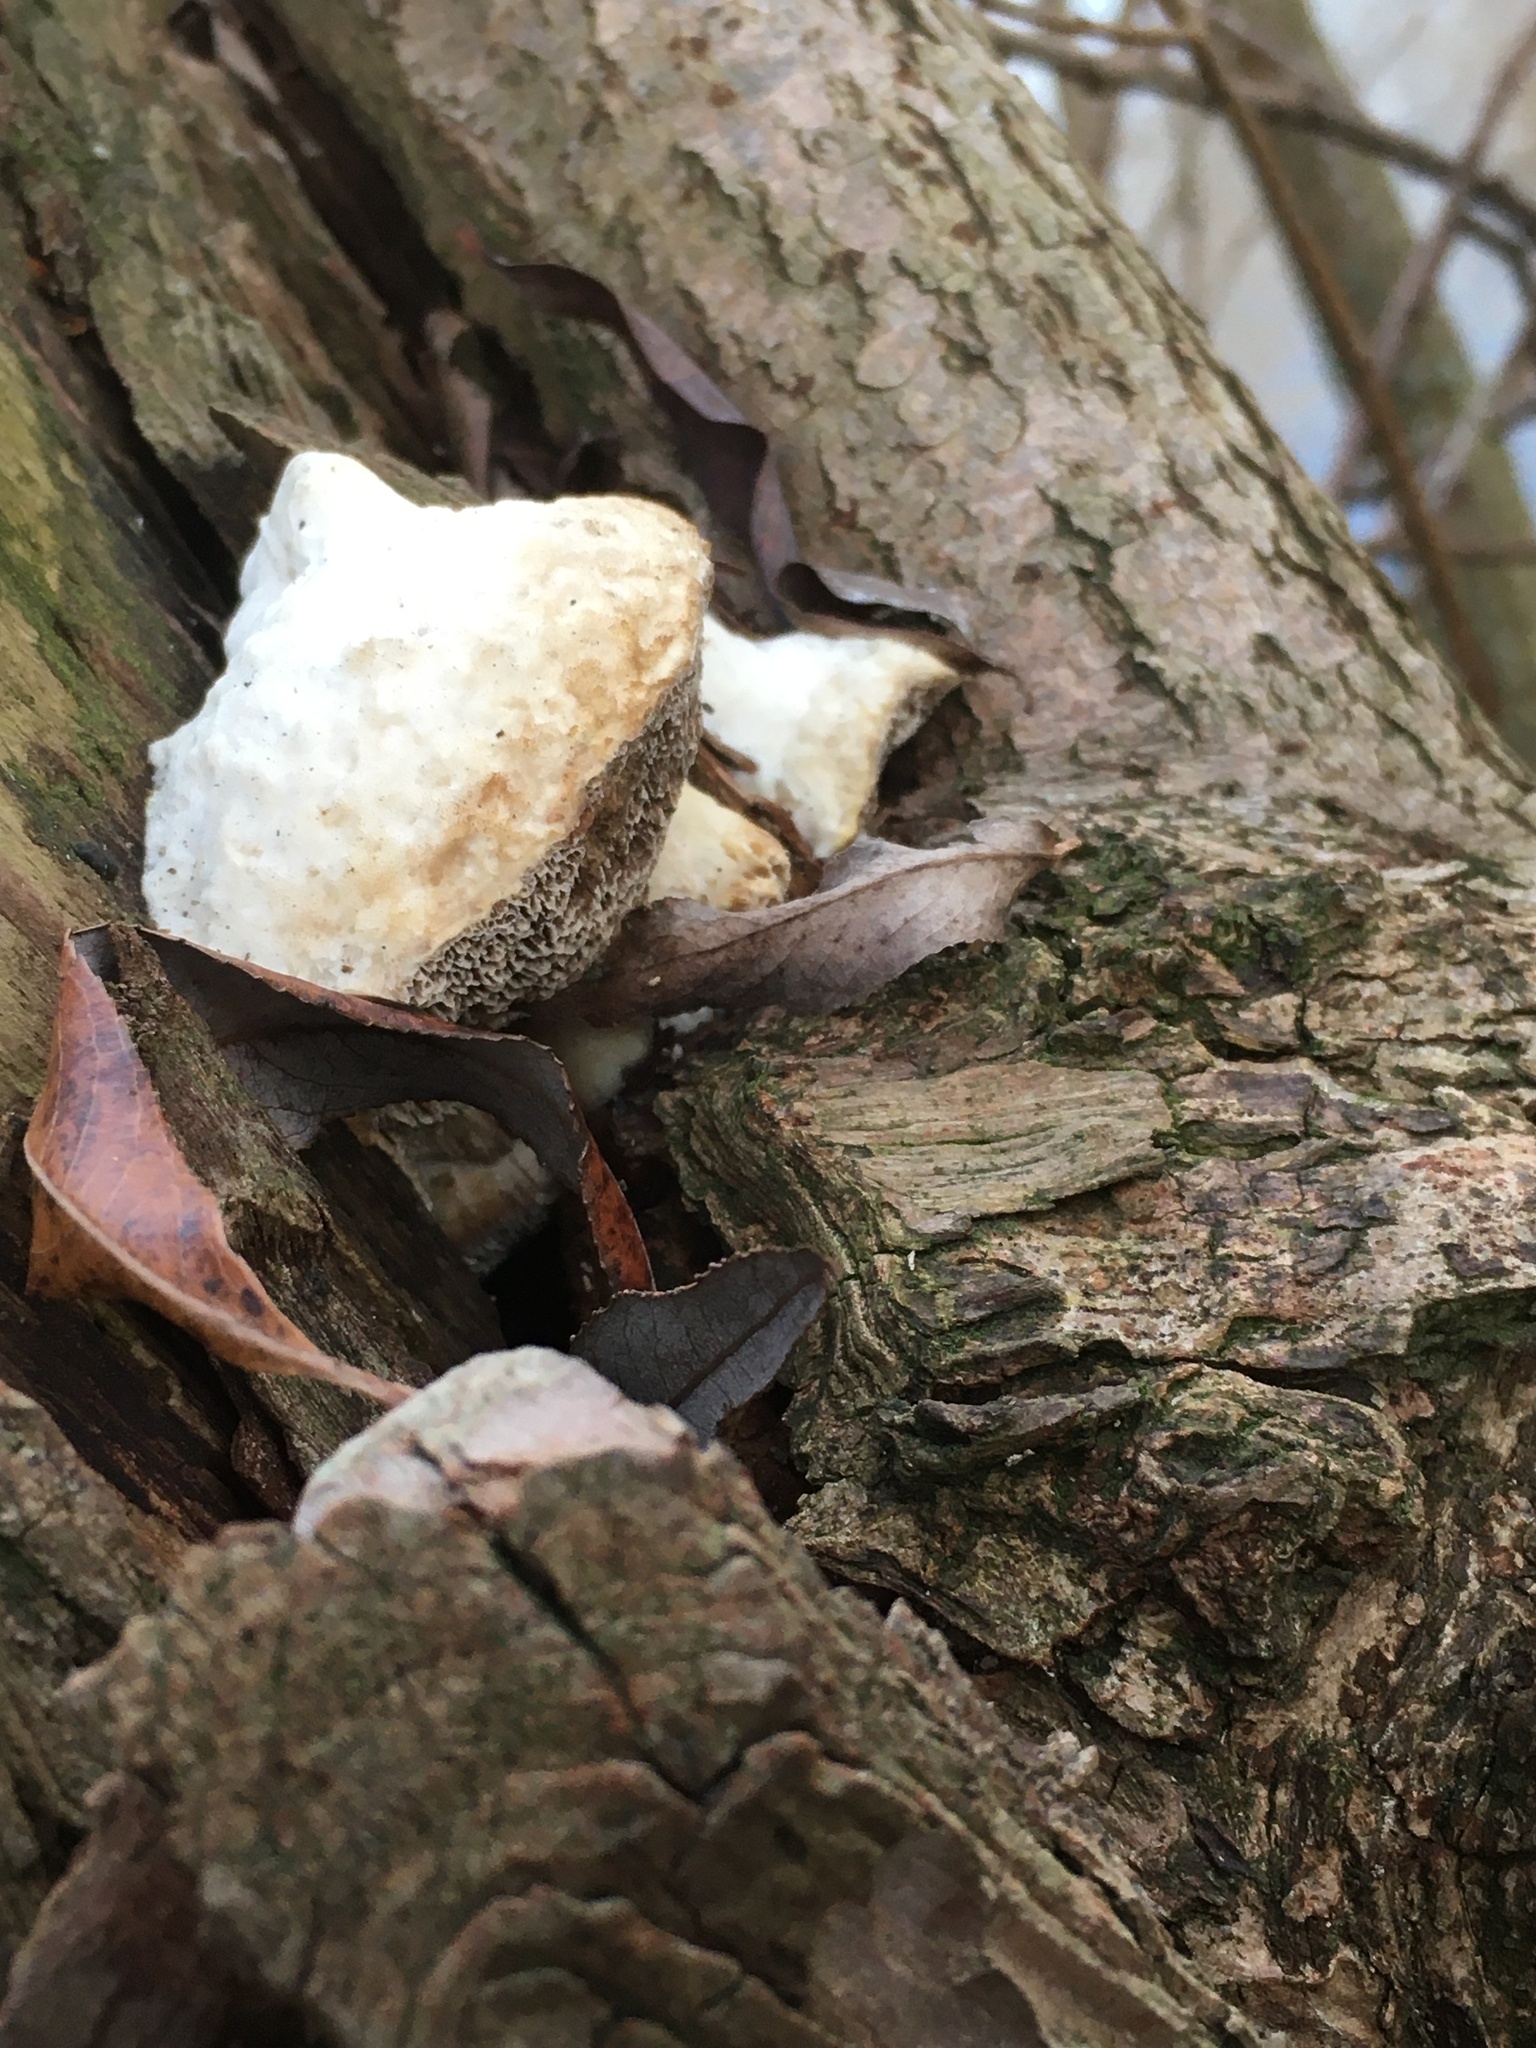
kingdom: Fungi
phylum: Basidiomycota
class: Agaricomycetes
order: Polyporales
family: Polyporaceae
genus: Trametes
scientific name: Trametes suaveolens
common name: Fragrant bracket
